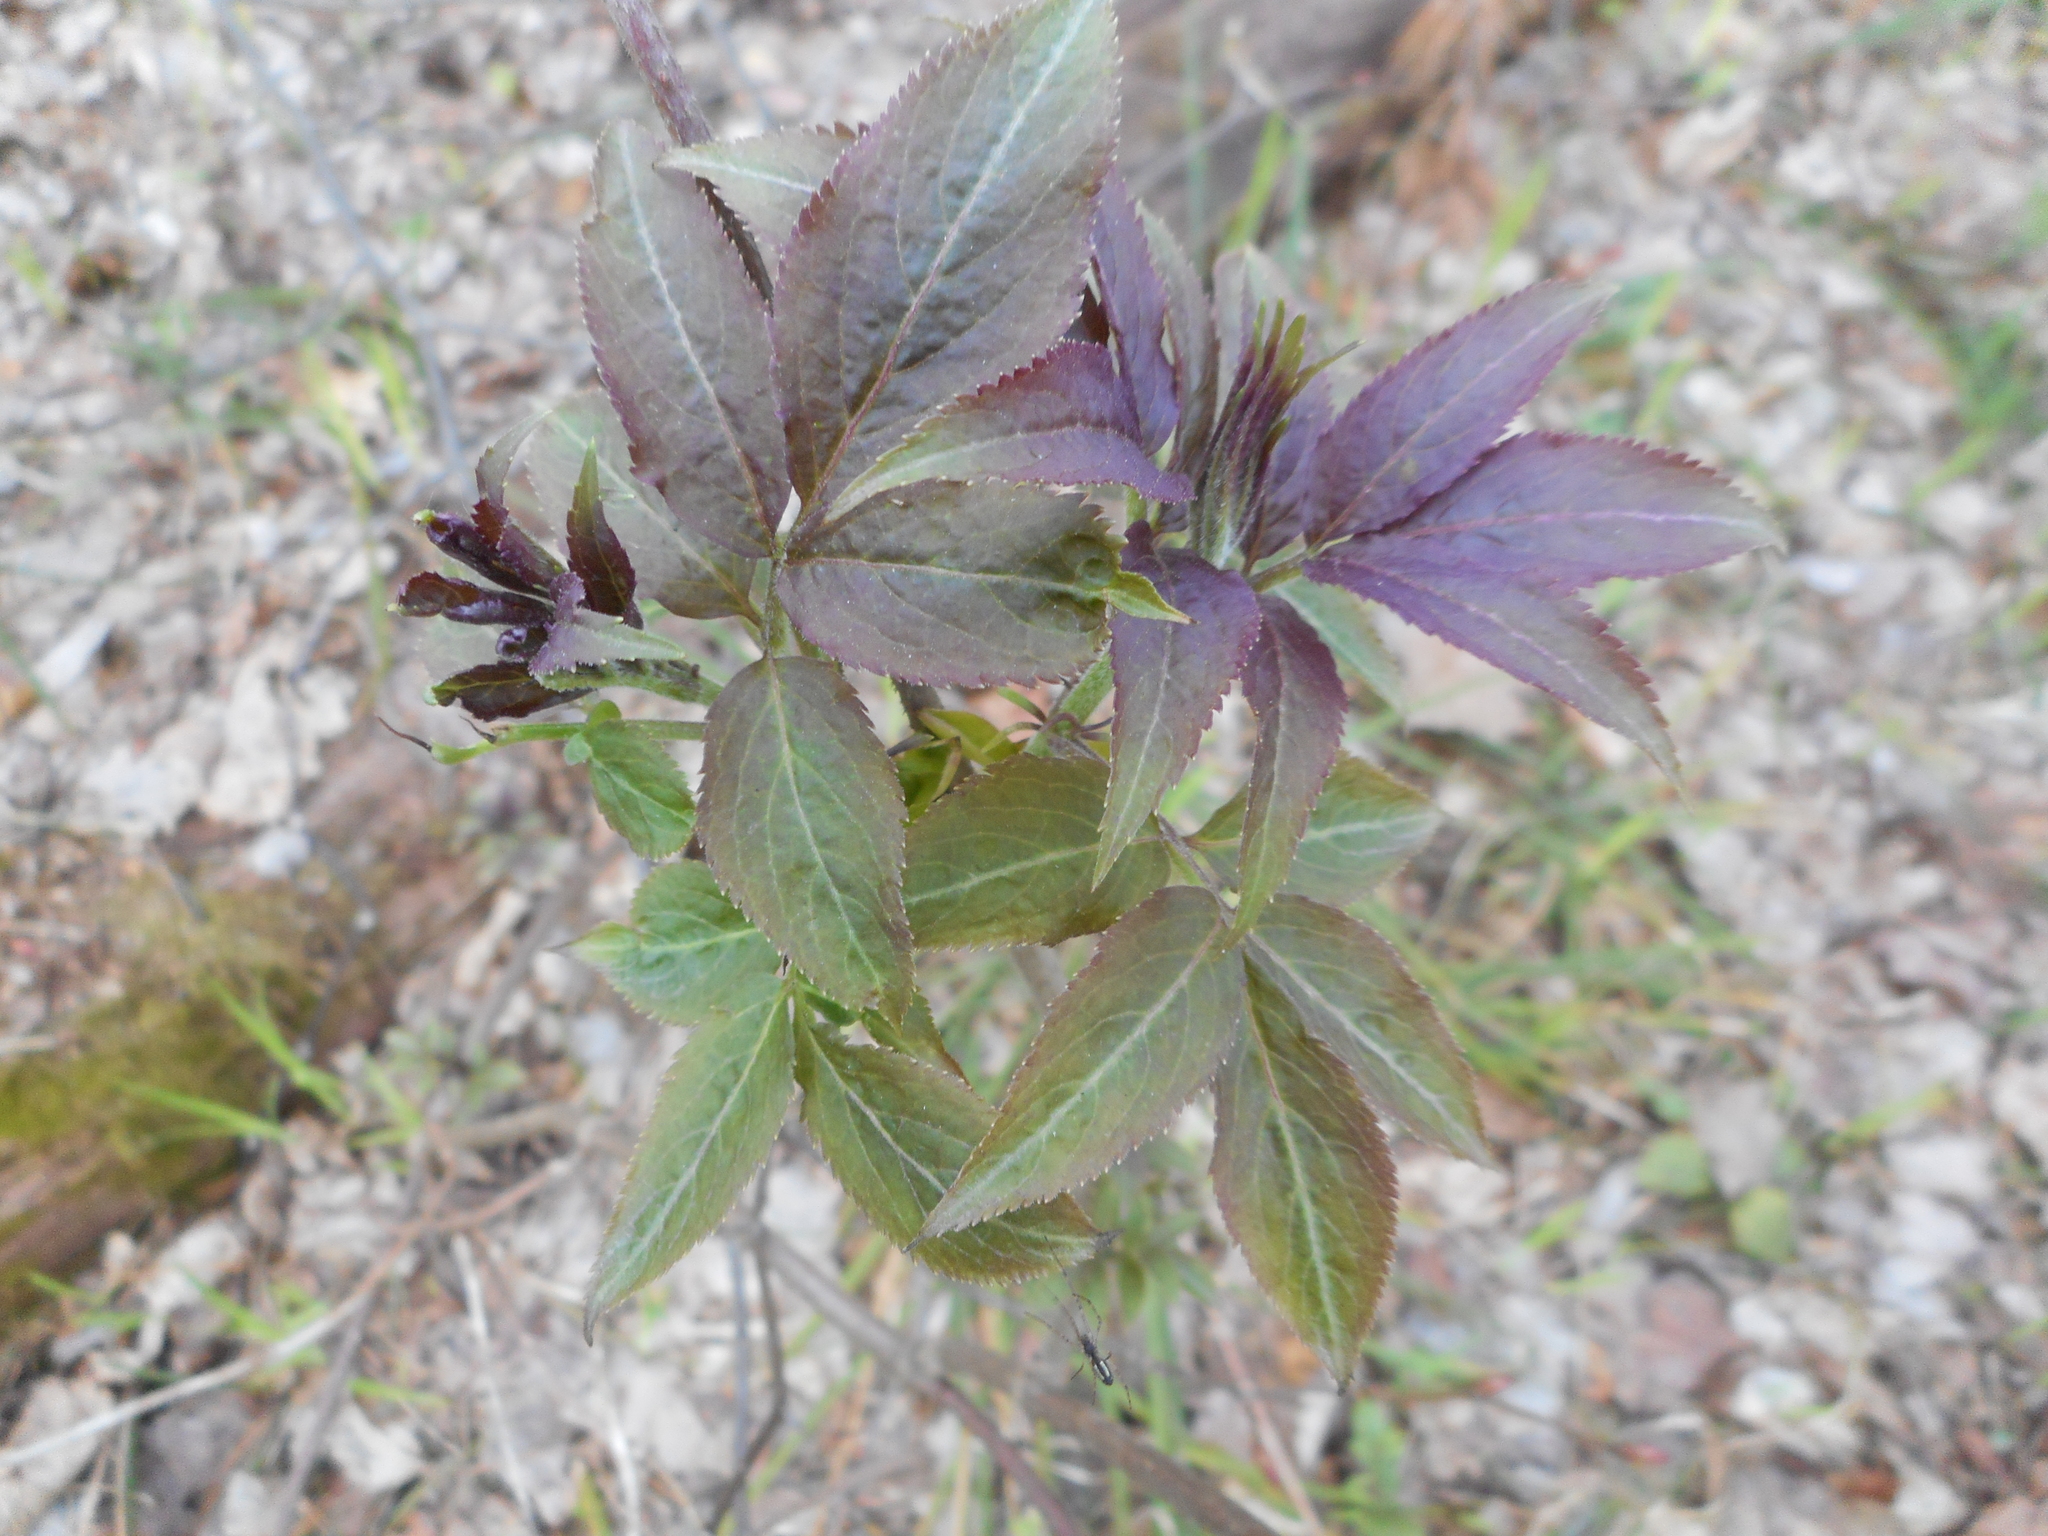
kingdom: Plantae
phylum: Tracheophyta
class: Magnoliopsida
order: Dipsacales
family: Viburnaceae
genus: Sambucus
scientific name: Sambucus racemosa
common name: Red-berried elder
